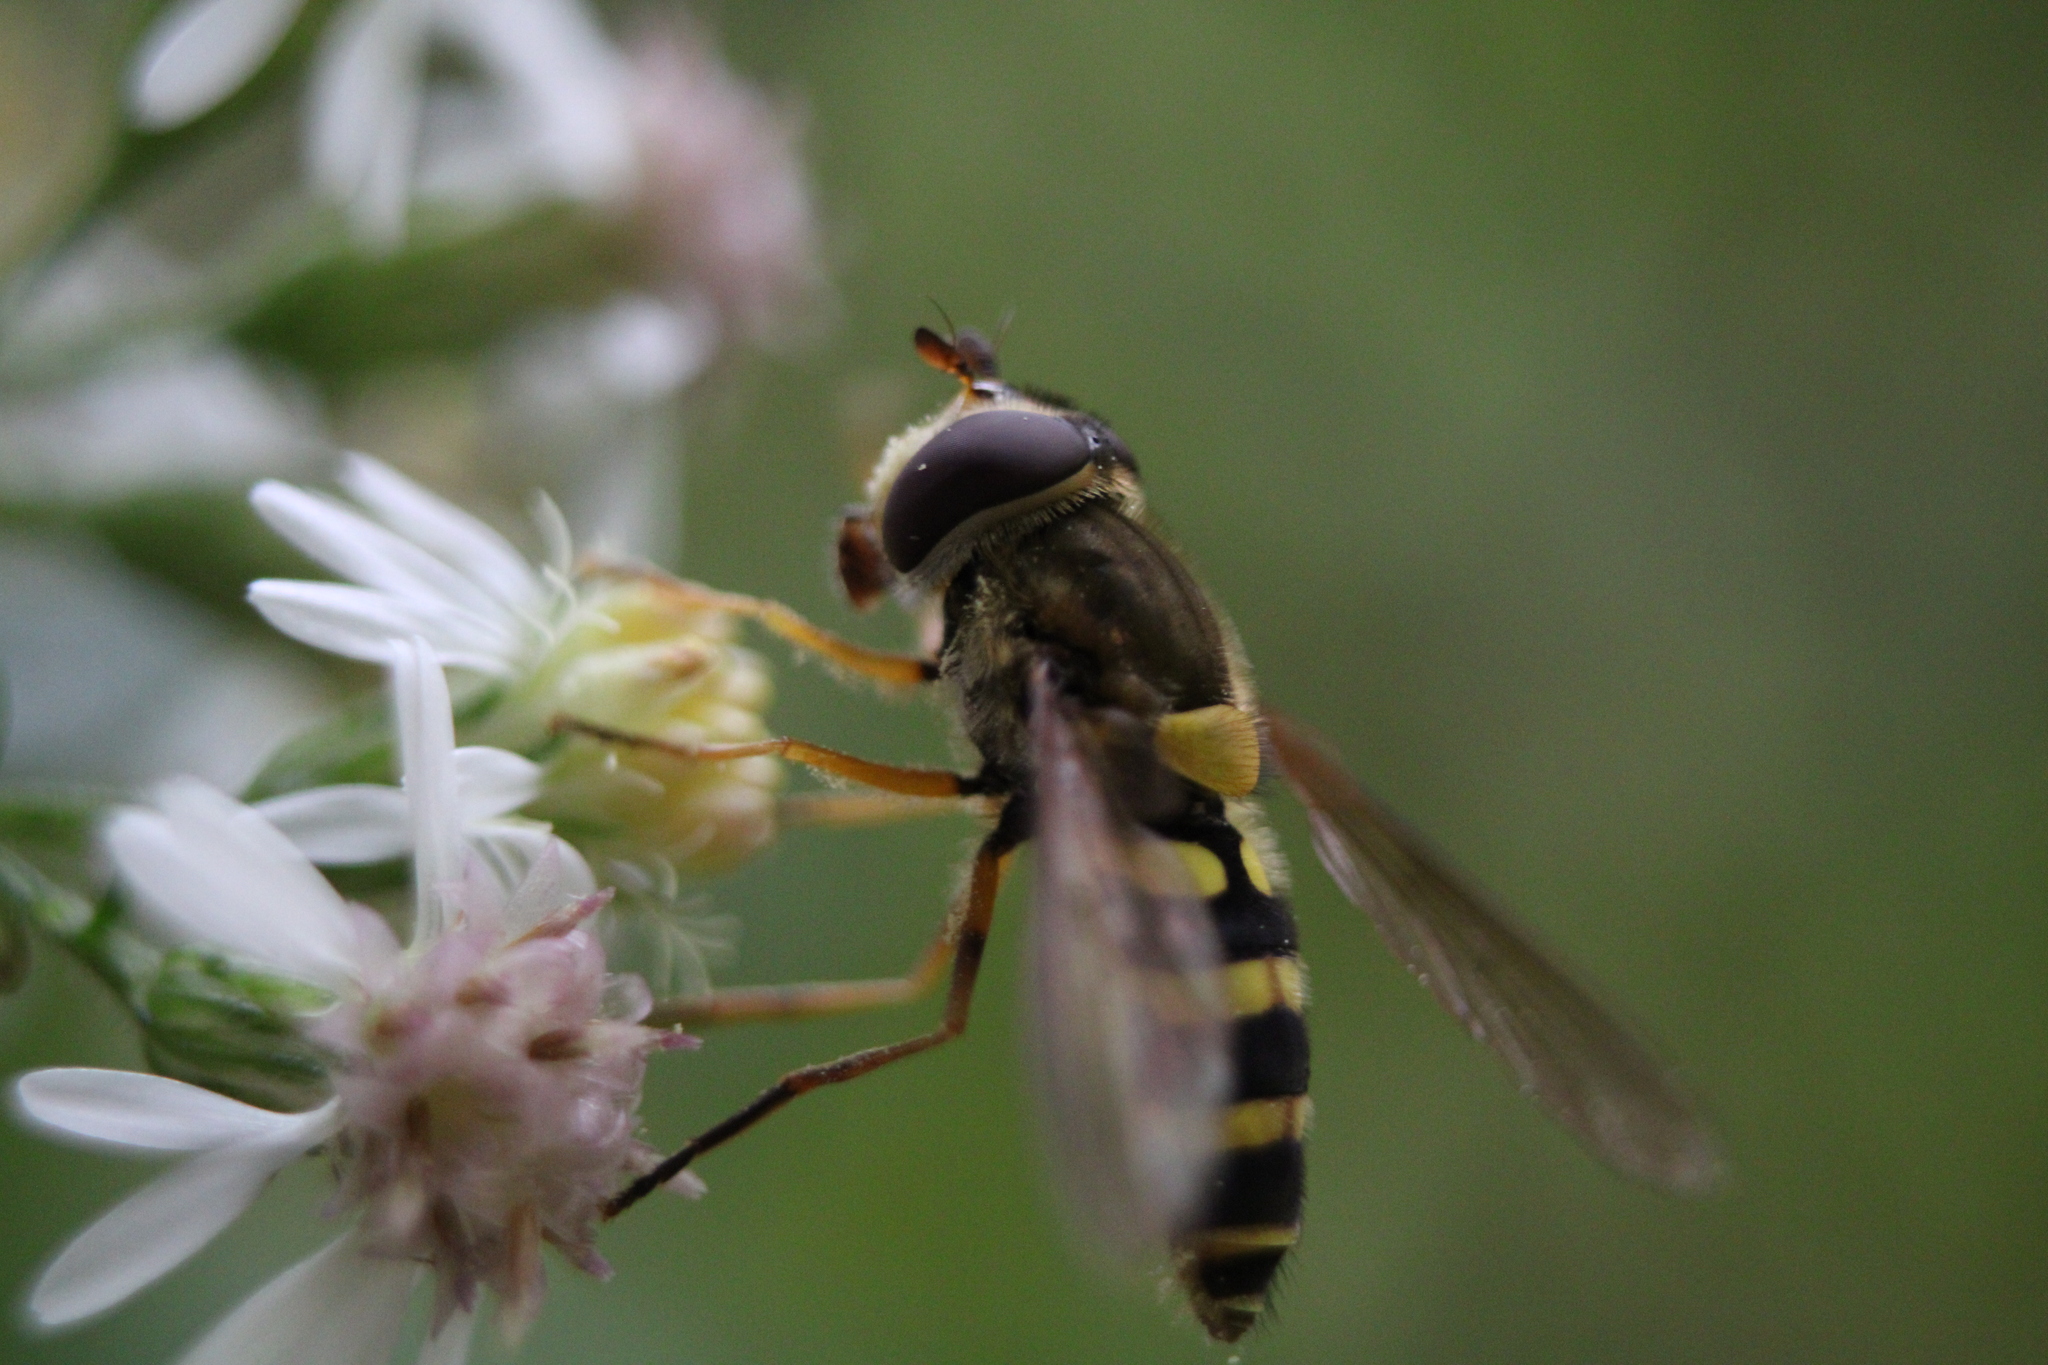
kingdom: Animalia
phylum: Arthropoda
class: Insecta
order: Diptera
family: Syrphidae
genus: Syrphus
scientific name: Syrphus rectus
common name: Yellow-legged flower fly
